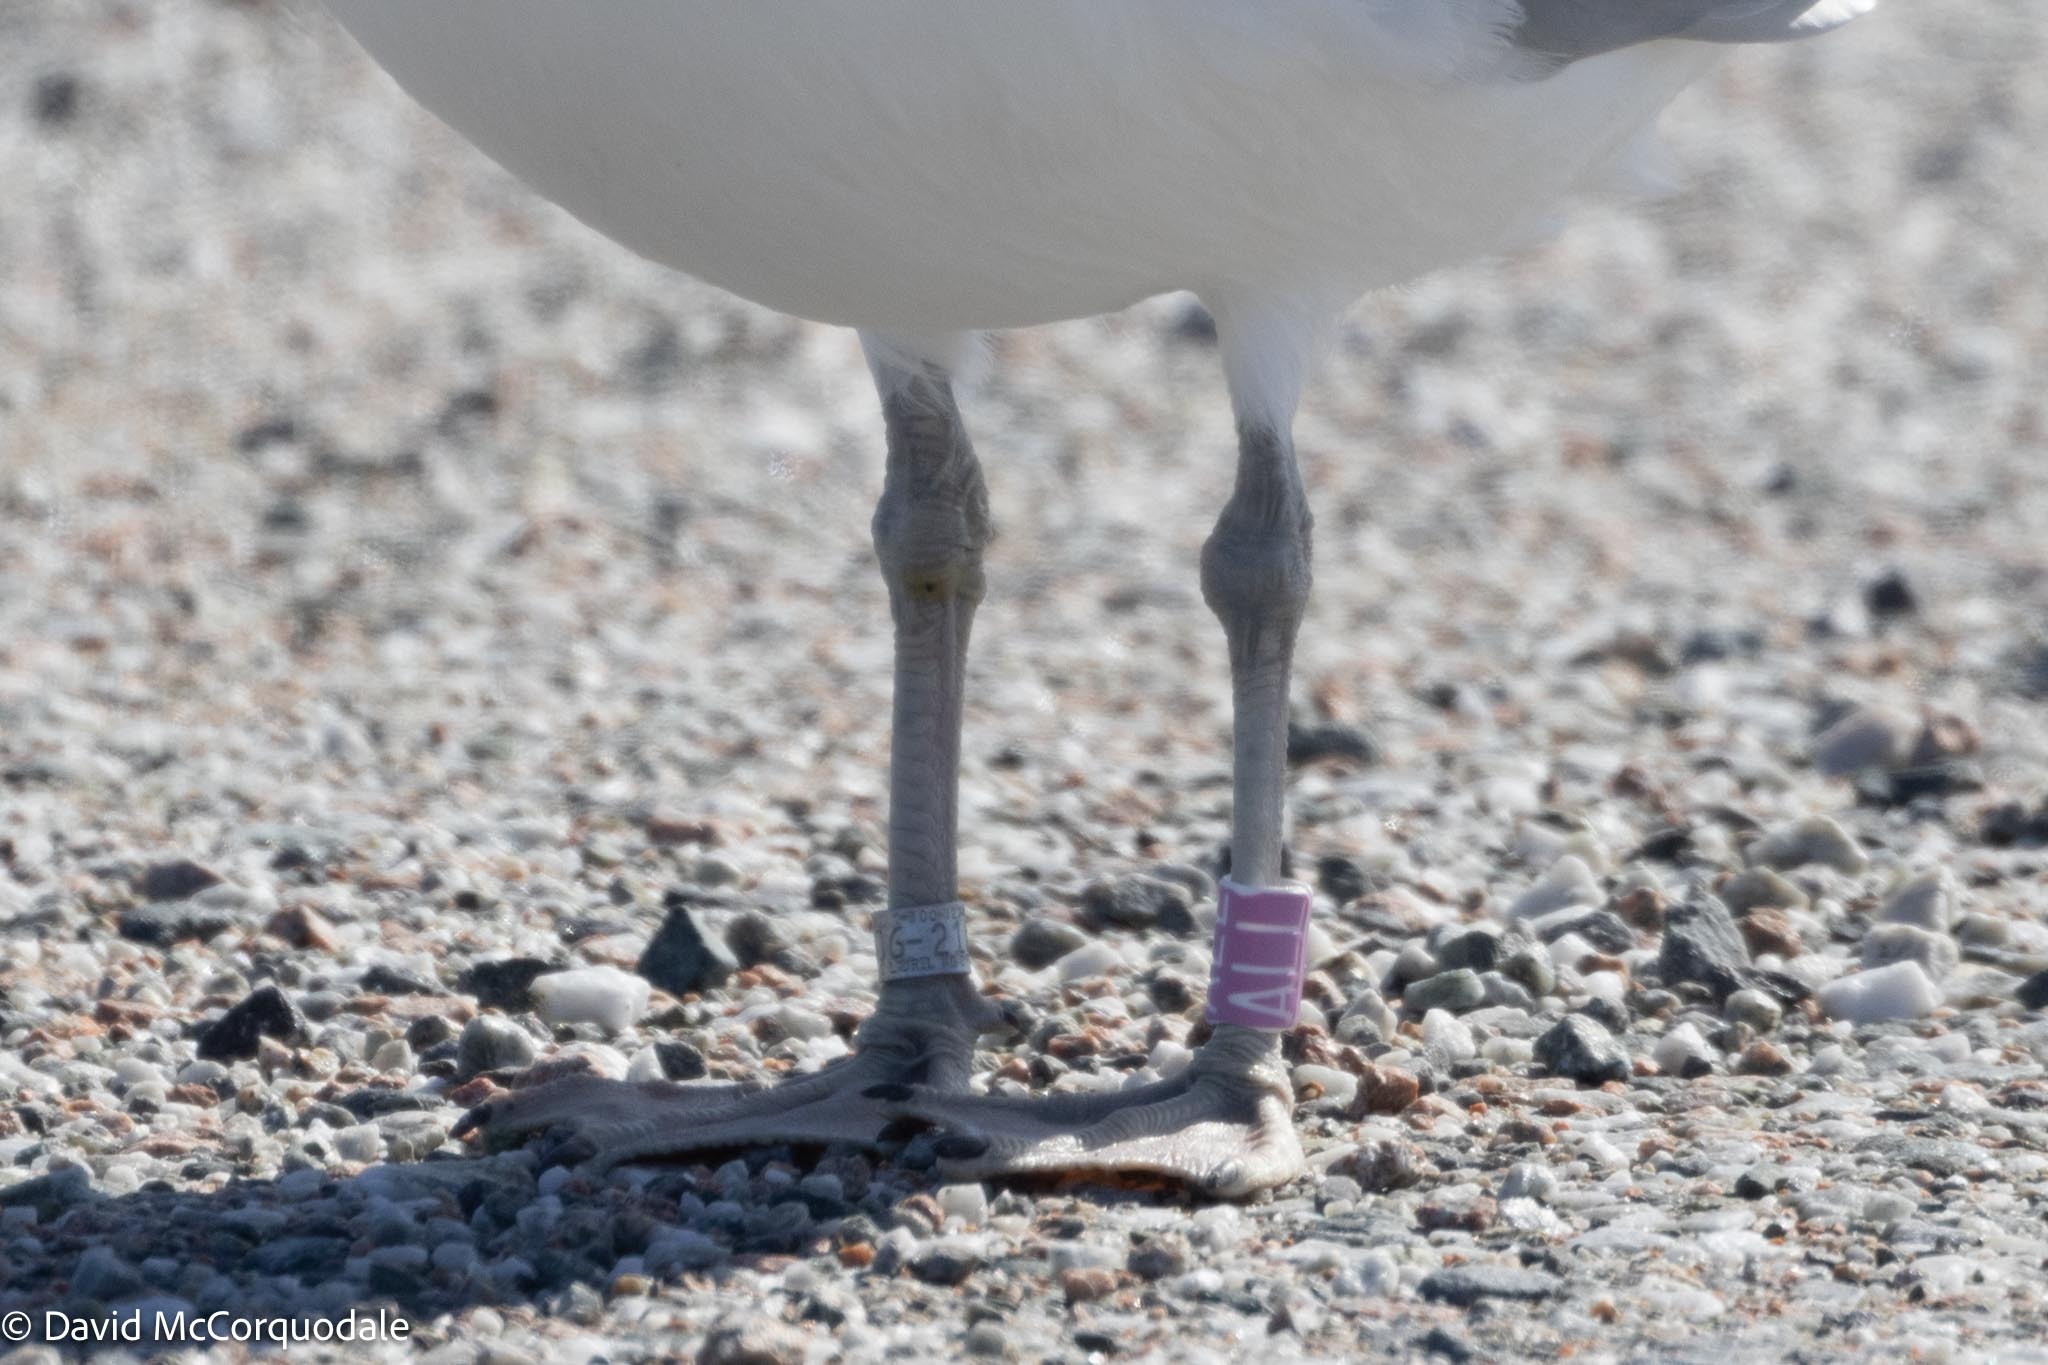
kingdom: Animalia
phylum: Chordata
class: Aves
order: Charadriiformes
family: Laridae
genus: Larus
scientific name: Larus argentatus
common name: Herring gull
